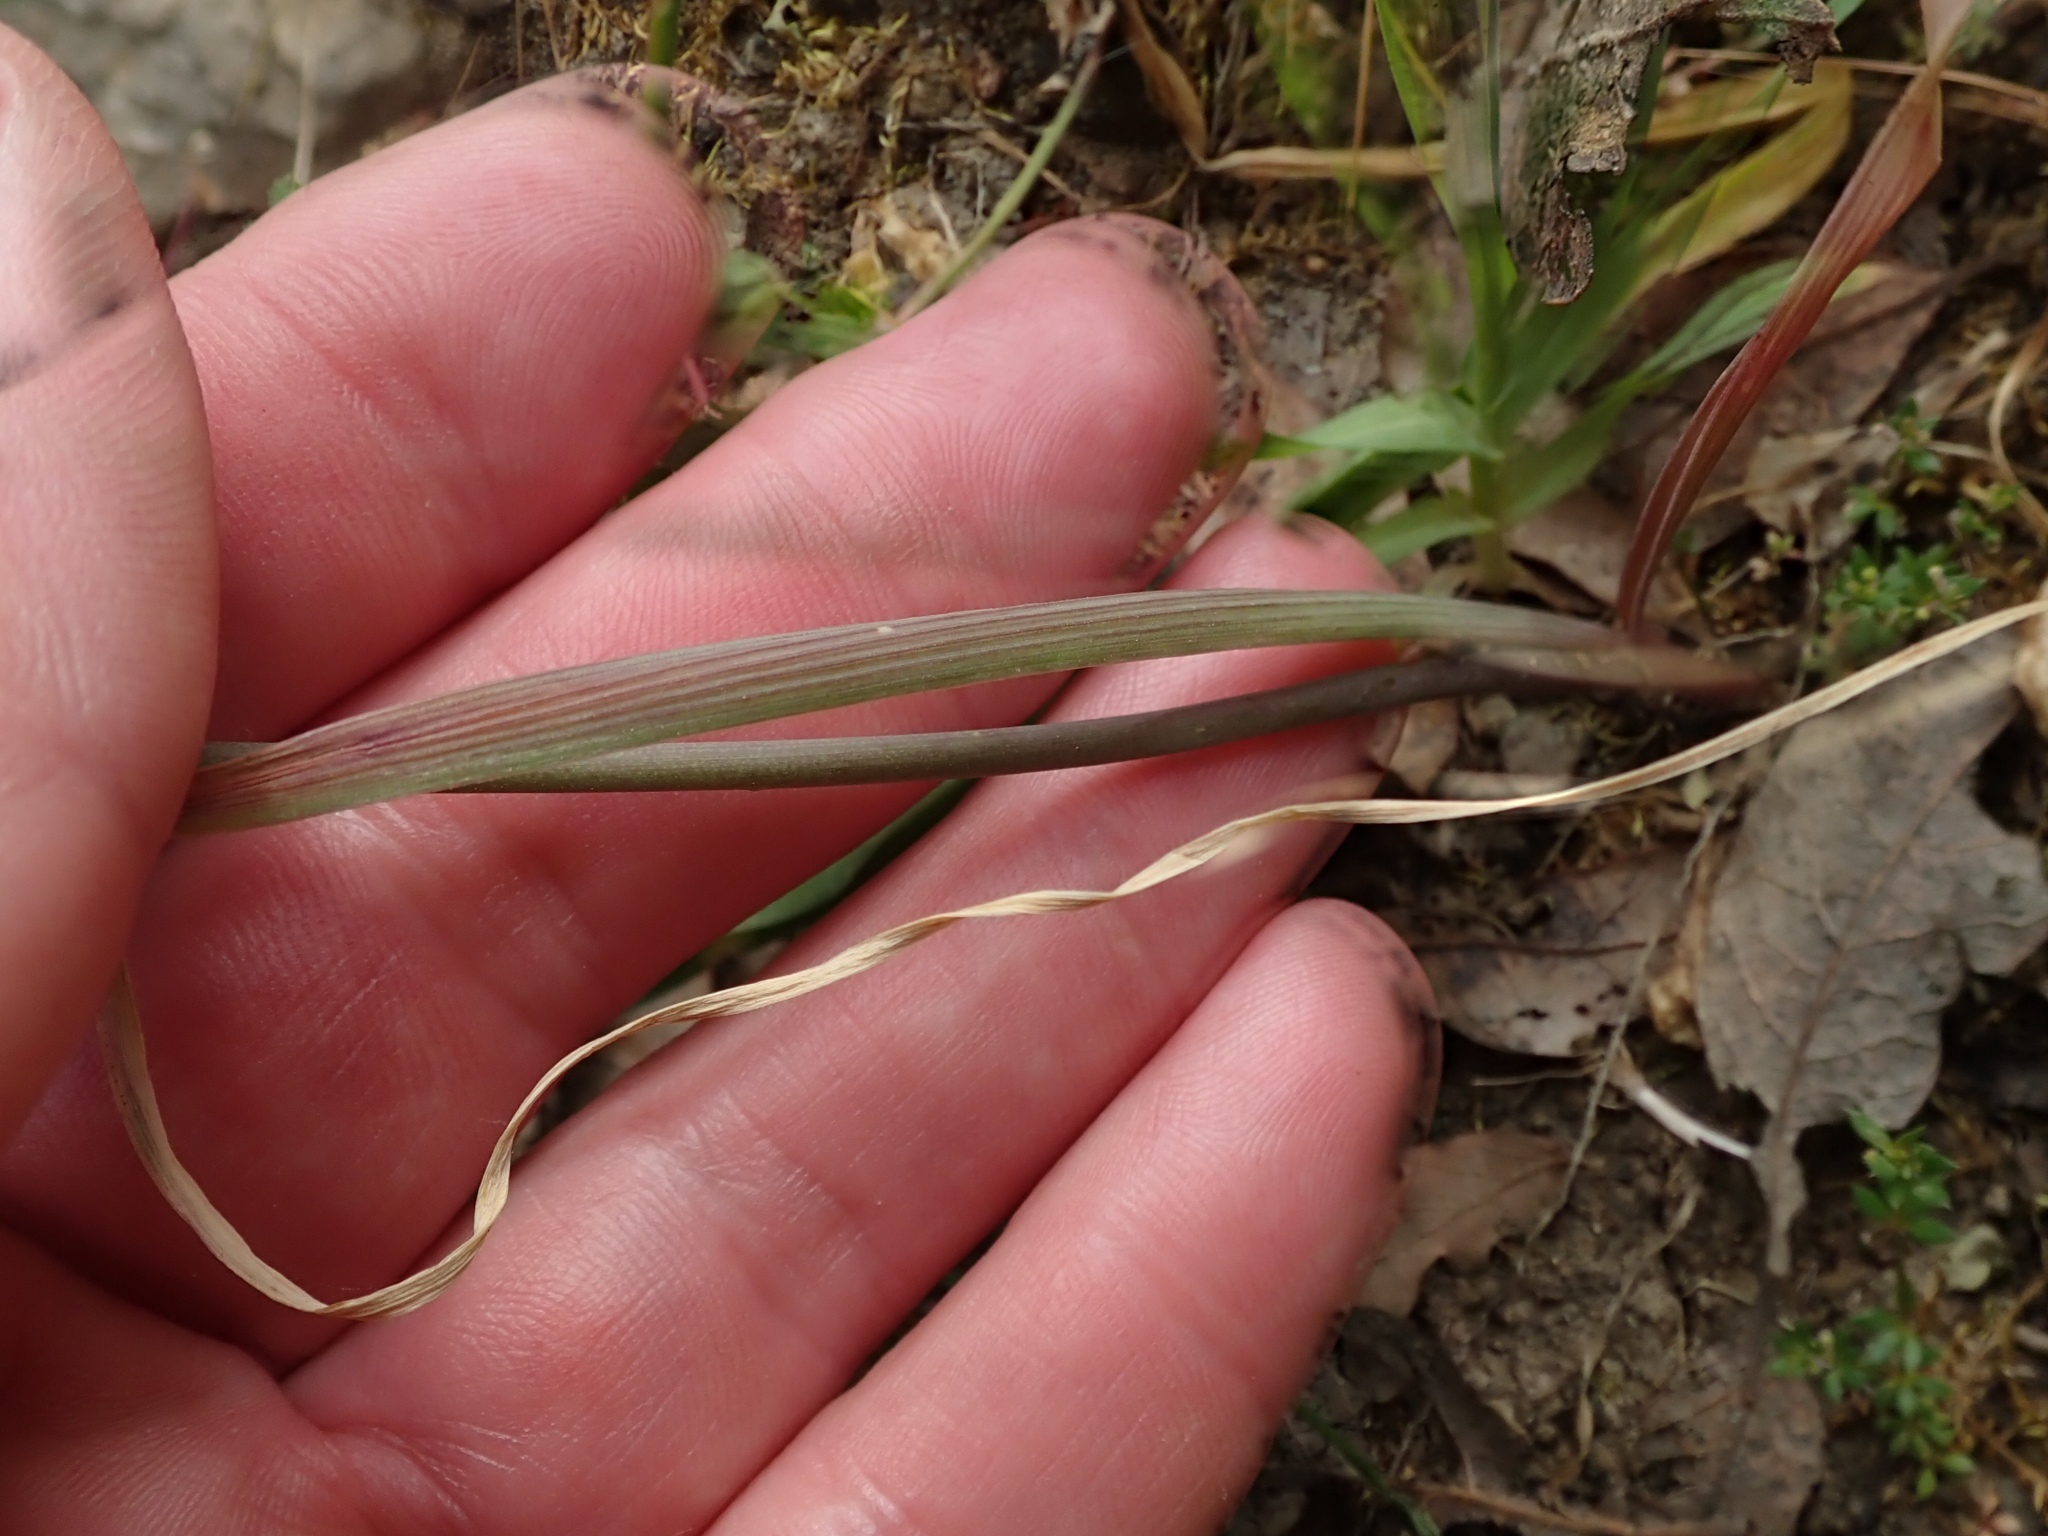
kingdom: Plantae
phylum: Tracheophyta
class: Liliopsida
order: Asparagales
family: Amaryllidaceae
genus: Allium
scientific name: Allium serra
